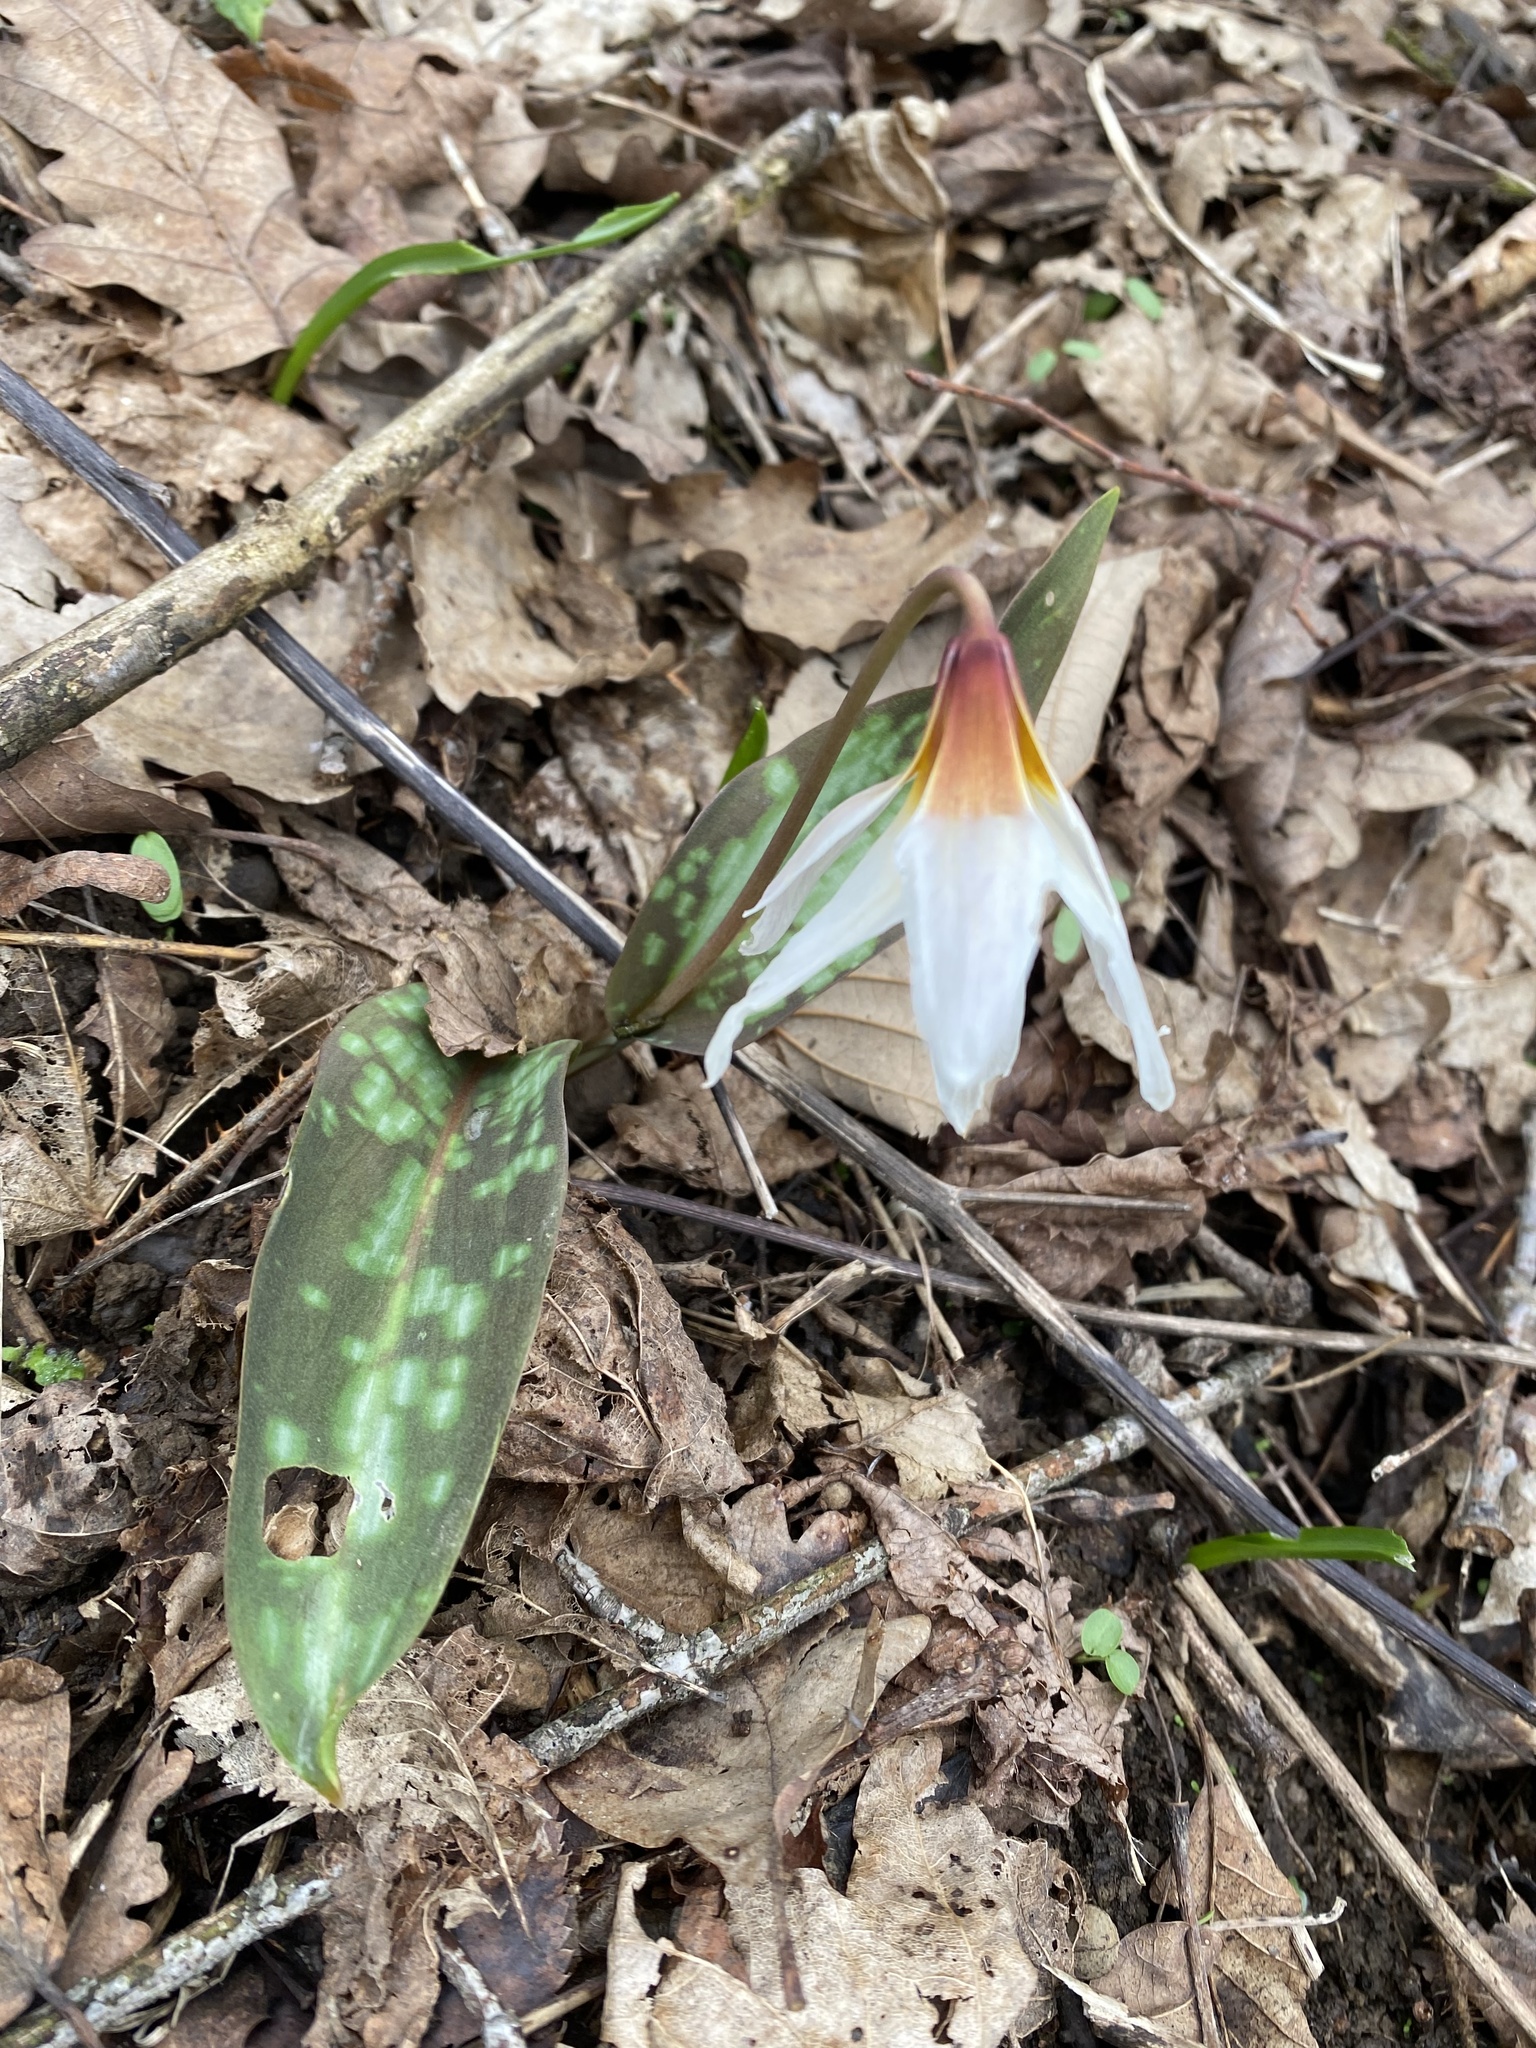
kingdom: Plantae
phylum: Tracheophyta
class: Liliopsida
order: Liliales
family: Liliaceae
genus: Erythronium
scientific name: Erythronium caucasicum
